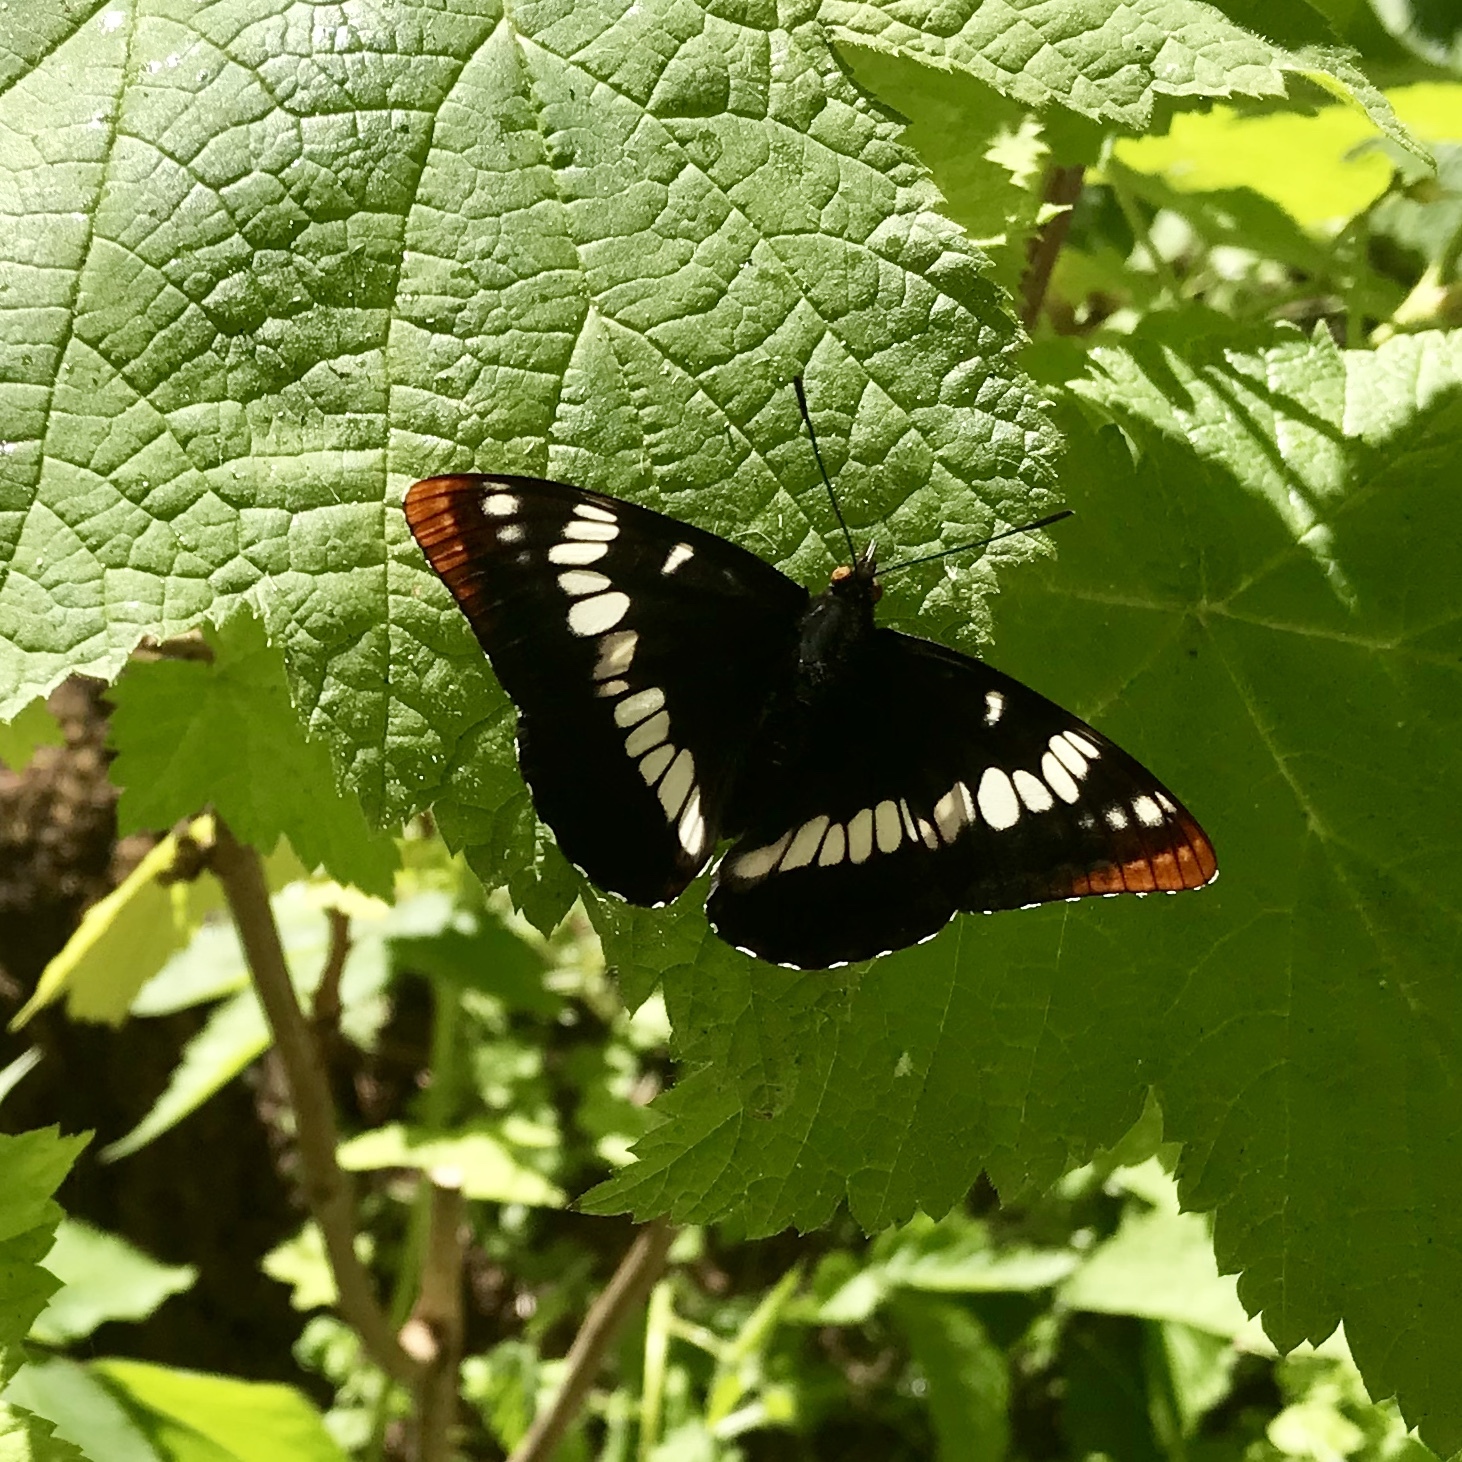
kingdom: Animalia
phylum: Arthropoda
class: Insecta
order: Lepidoptera
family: Nymphalidae
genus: Limenitis
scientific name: Limenitis lorquini
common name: Lorquin's admiral
